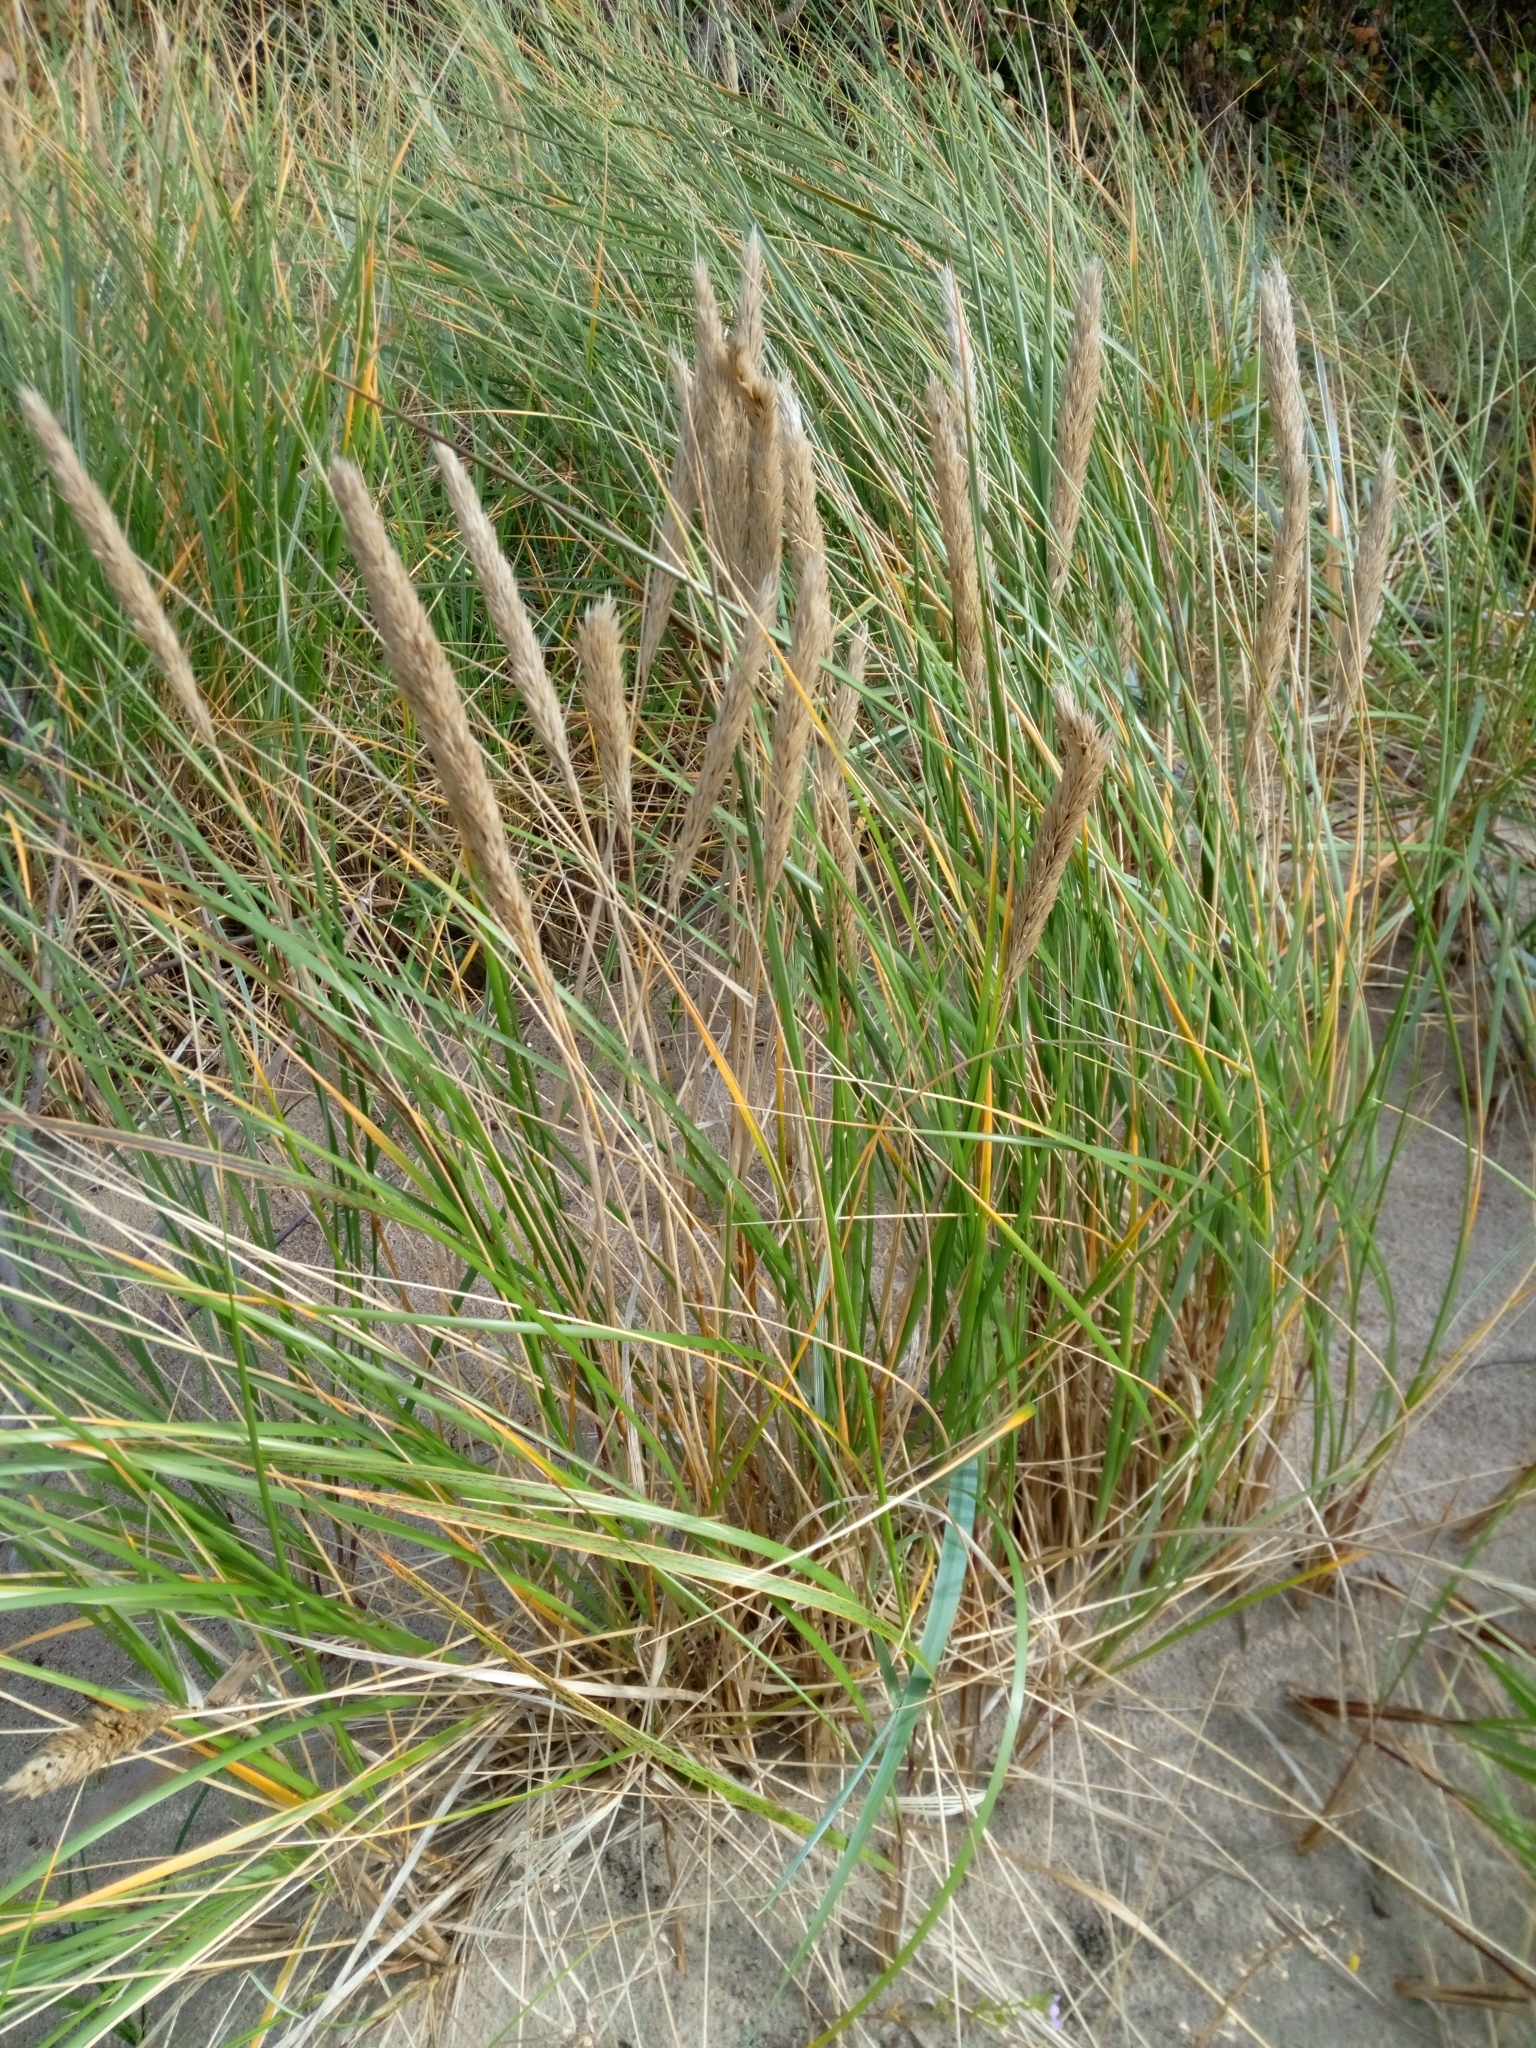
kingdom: Plantae
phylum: Tracheophyta
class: Liliopsida
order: Poales
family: Poaceae
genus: Calamagrostis
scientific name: Calamagrostis arenaria
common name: European beachgrass
